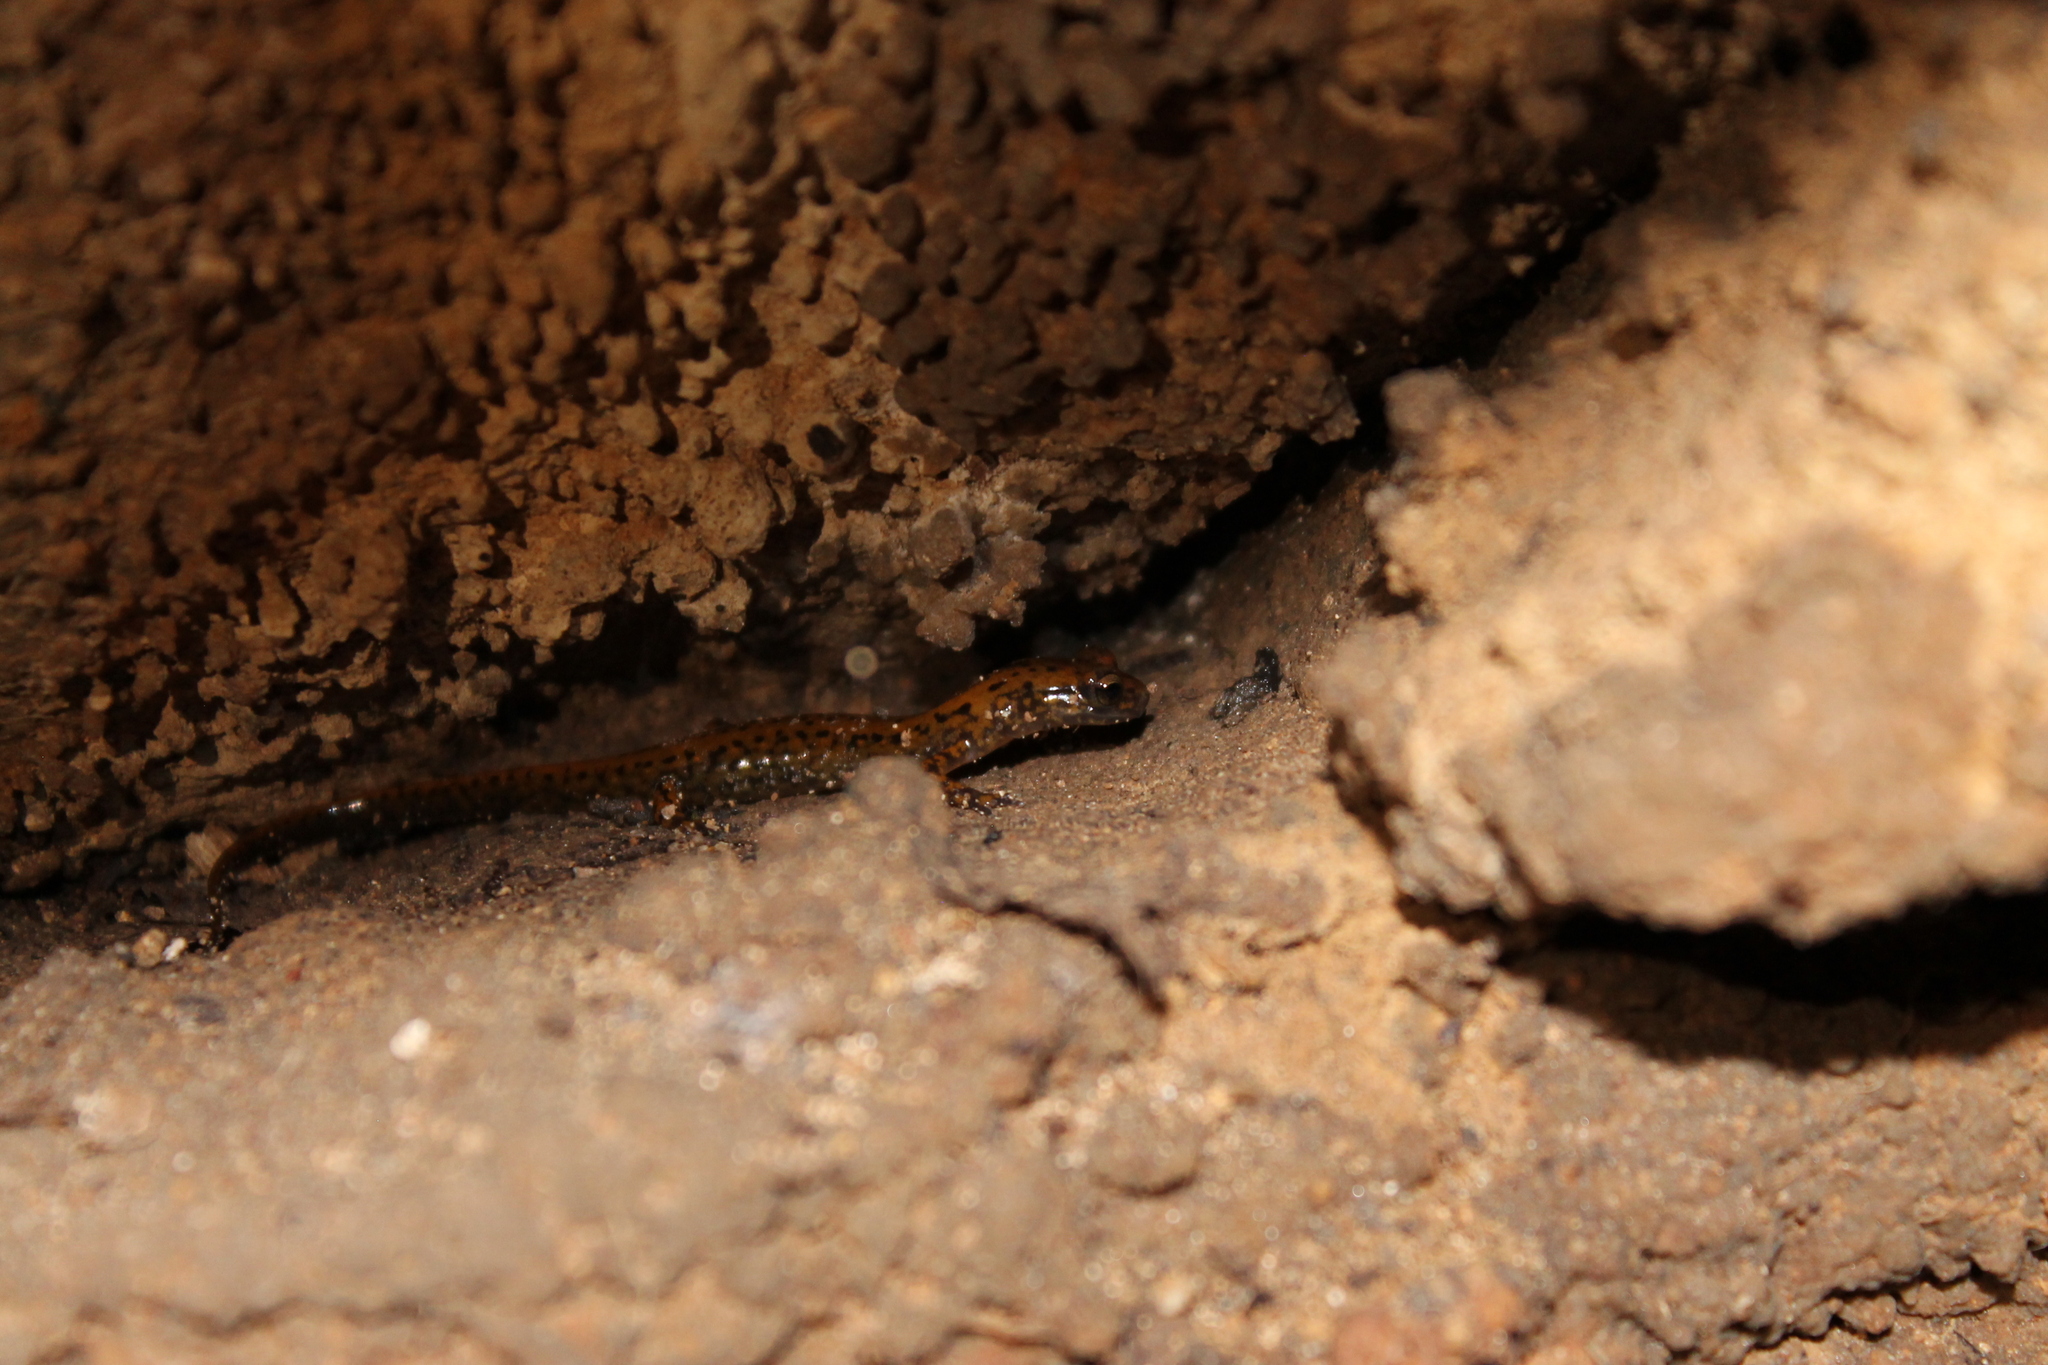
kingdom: Animalia
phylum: Chordata
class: Amphibia
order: Caudata
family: Plethodontidae
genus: Eurycea
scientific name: Eurycea lucifuga
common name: Cave salamander
